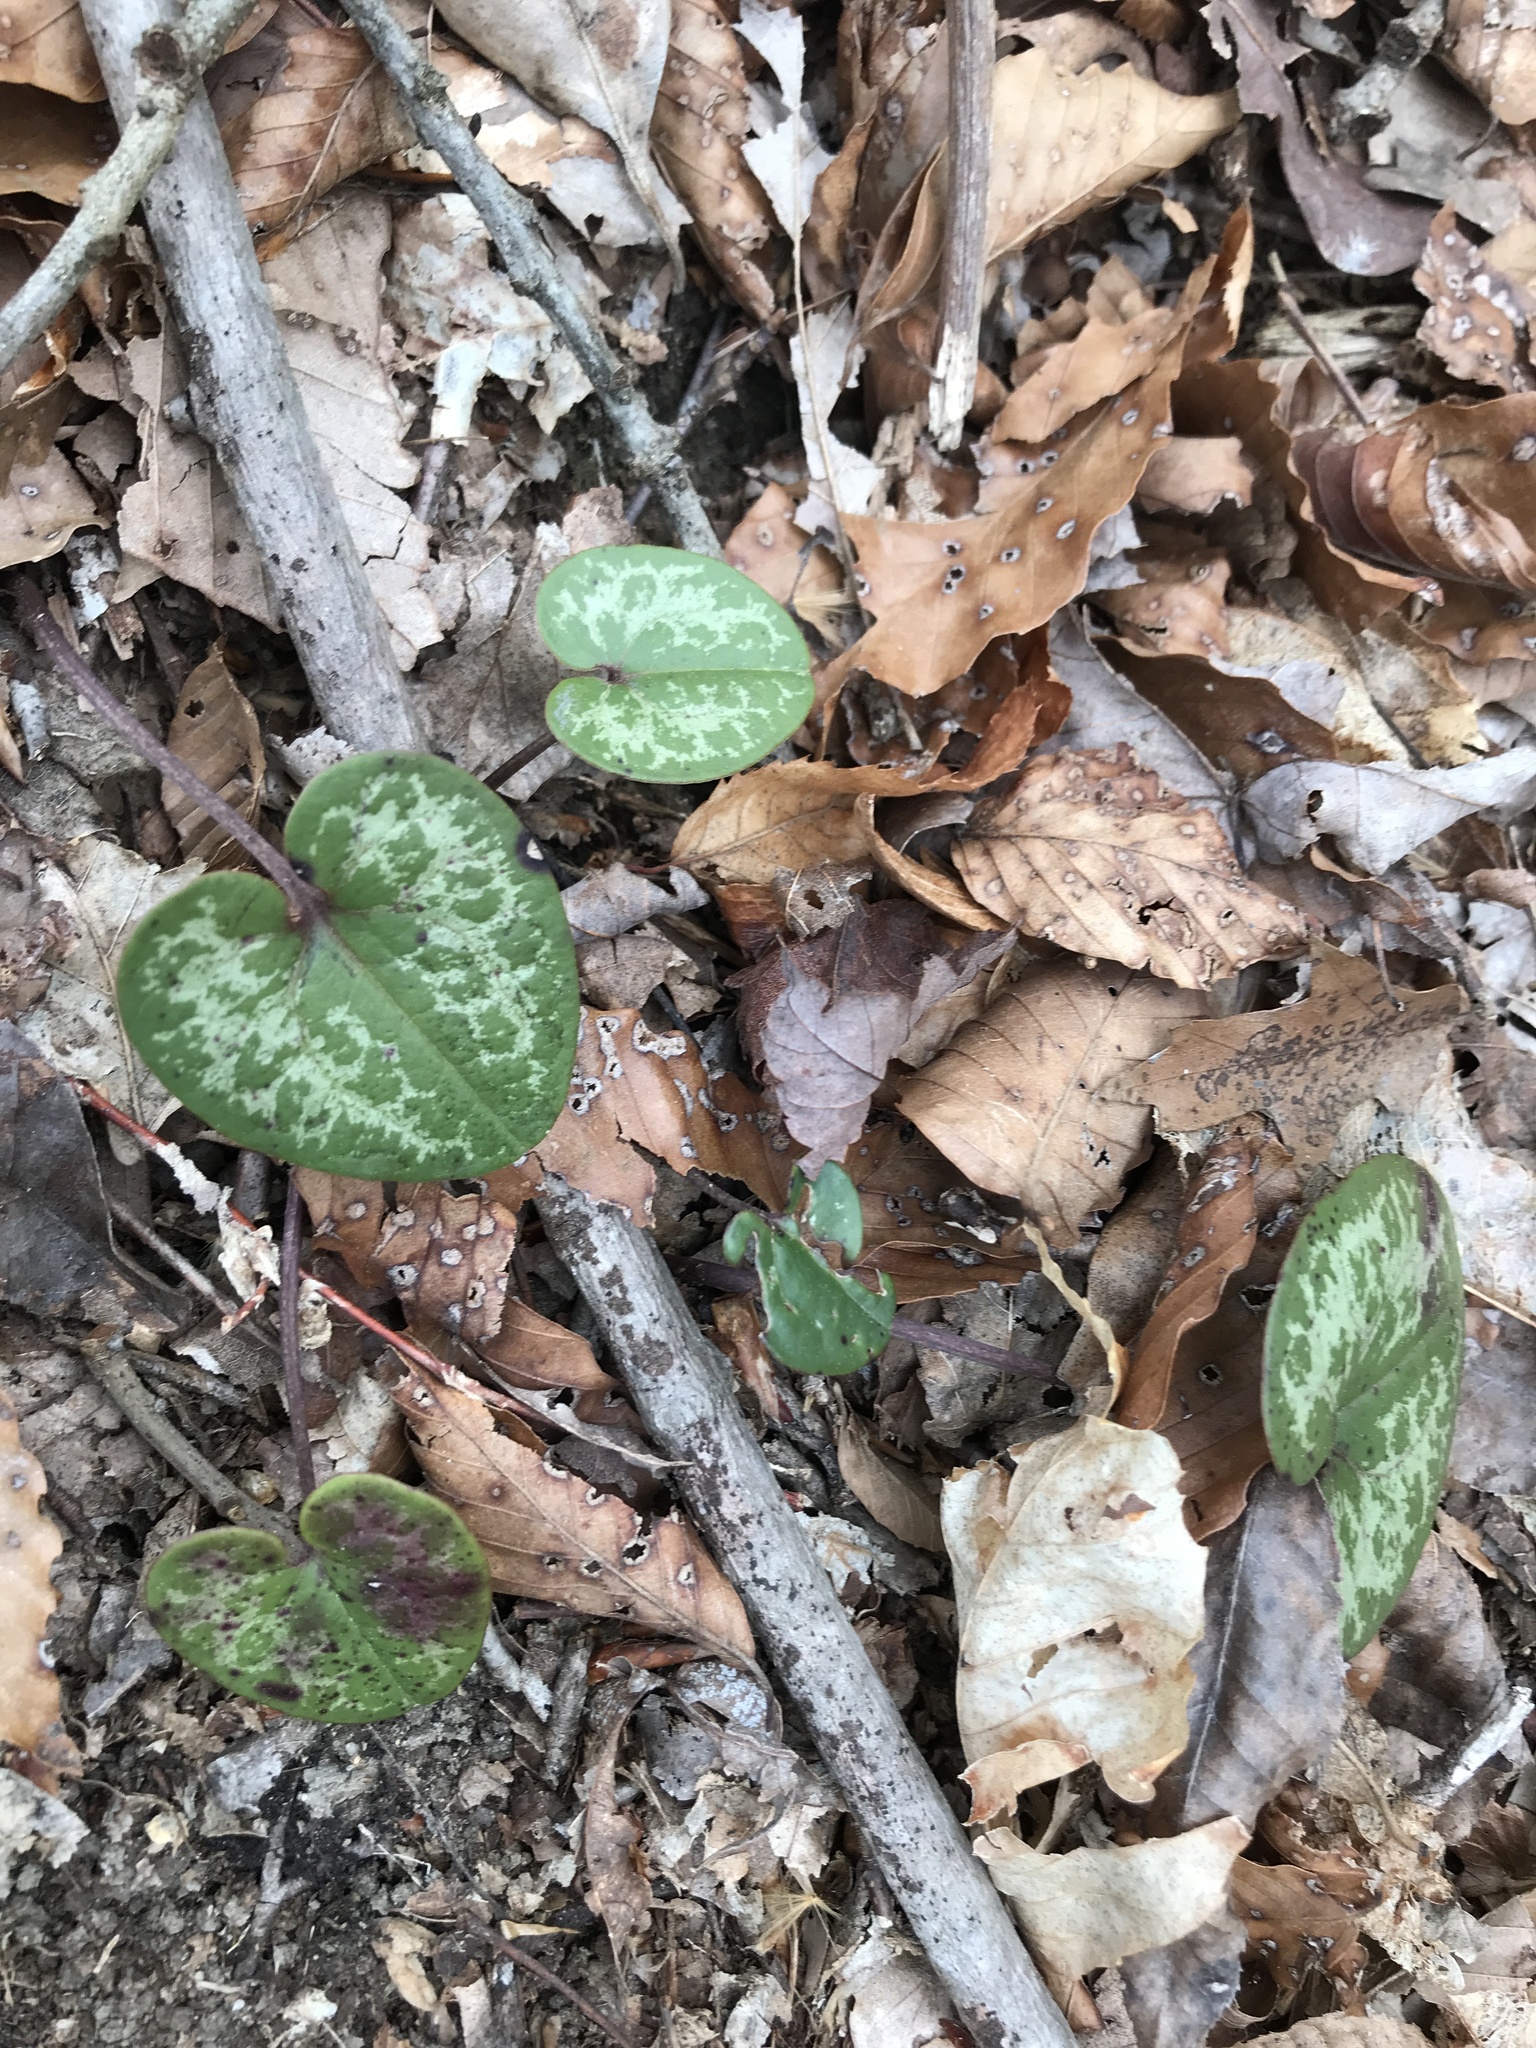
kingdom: Plantae
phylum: Tracheophyta
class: Magnoliopsida
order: Piperales
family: Aristolochiaceae
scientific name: Aristolochiaceae
